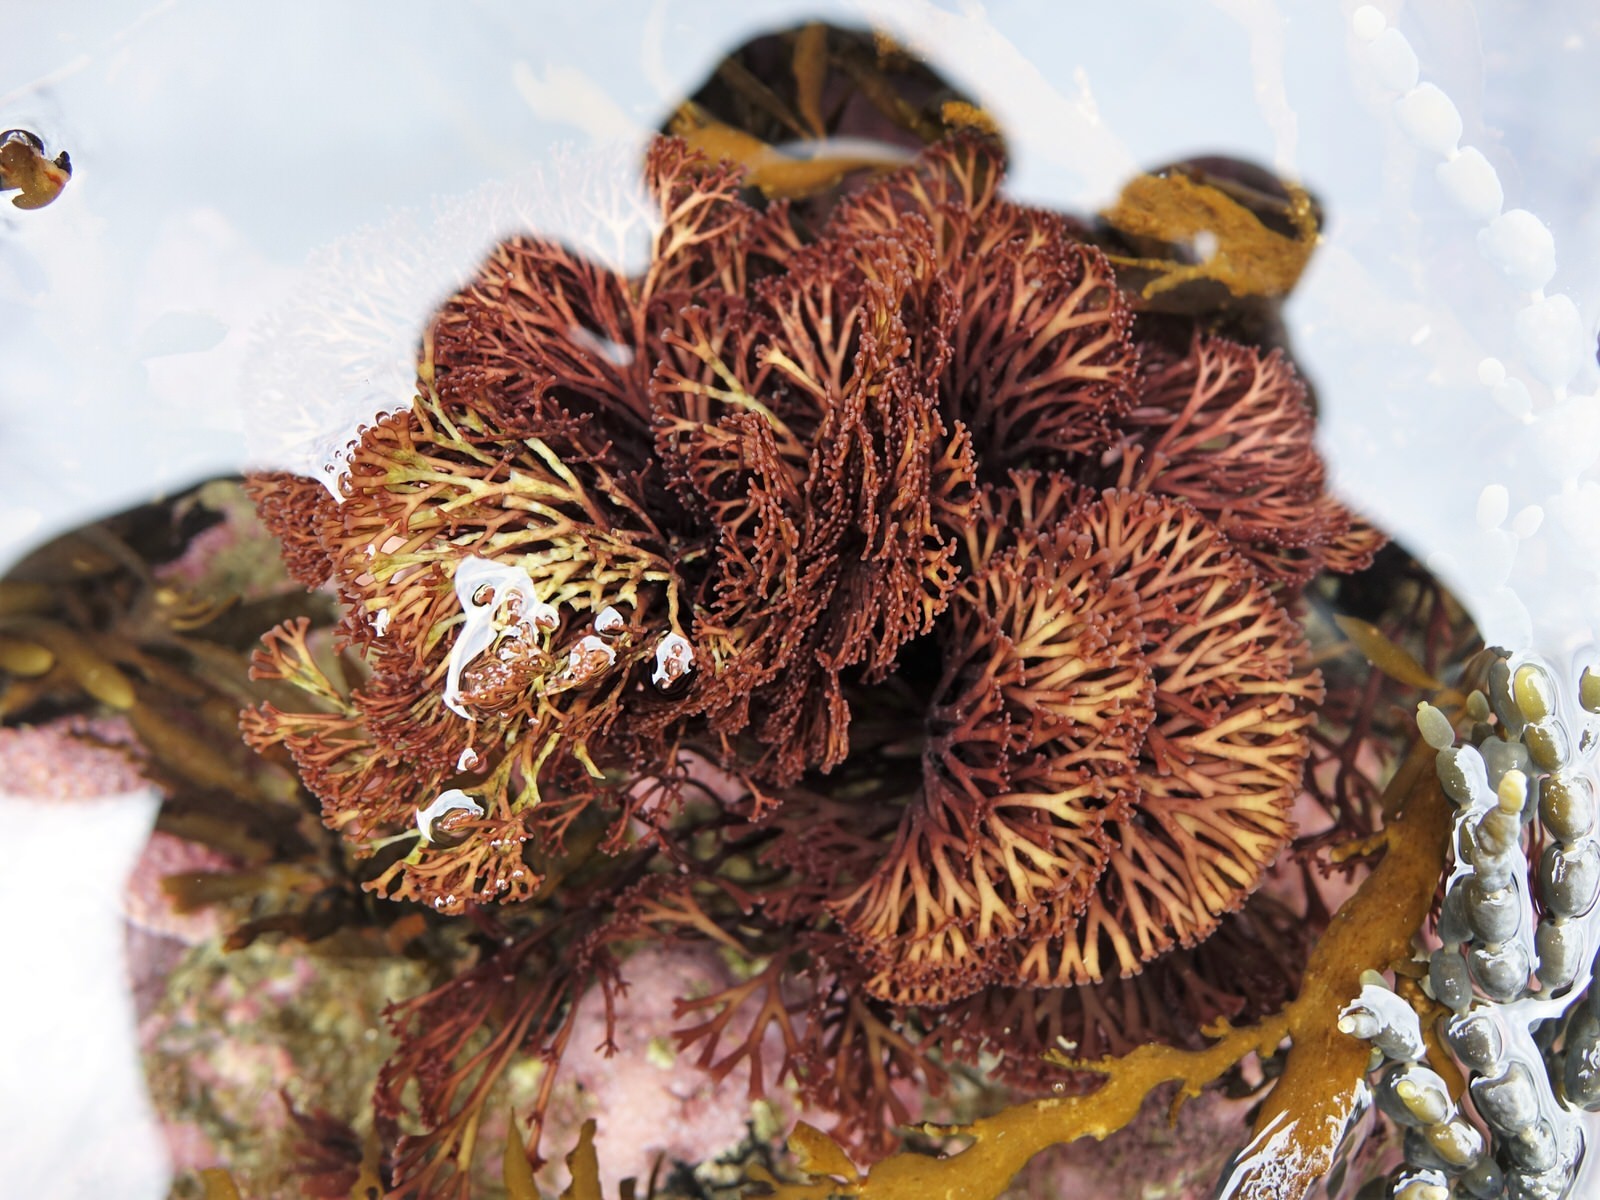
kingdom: Plantae
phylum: Rhodophyta
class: Florideophyceae
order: Gigartinales
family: Phyllophoraceae
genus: Gymnogongrus
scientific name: Gymnogongrus humilis
